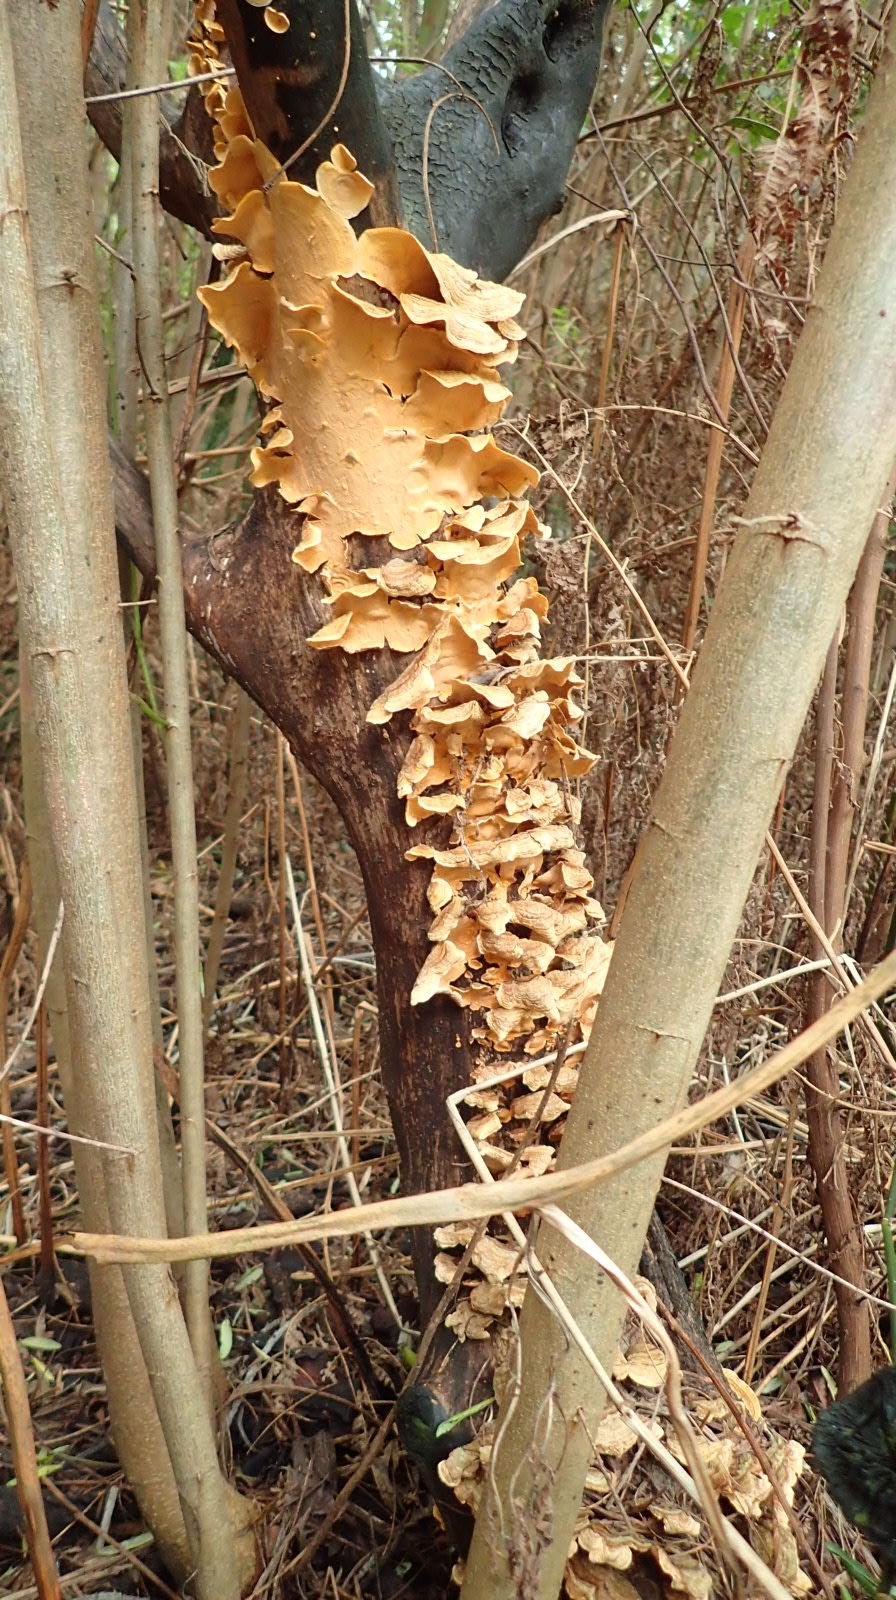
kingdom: Fungi
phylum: Basidiomycota
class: Agaricomycetes
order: Russulales
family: Stereaceae
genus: Stereum
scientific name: Stereum hirsutum
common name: Hairy curtain crust
